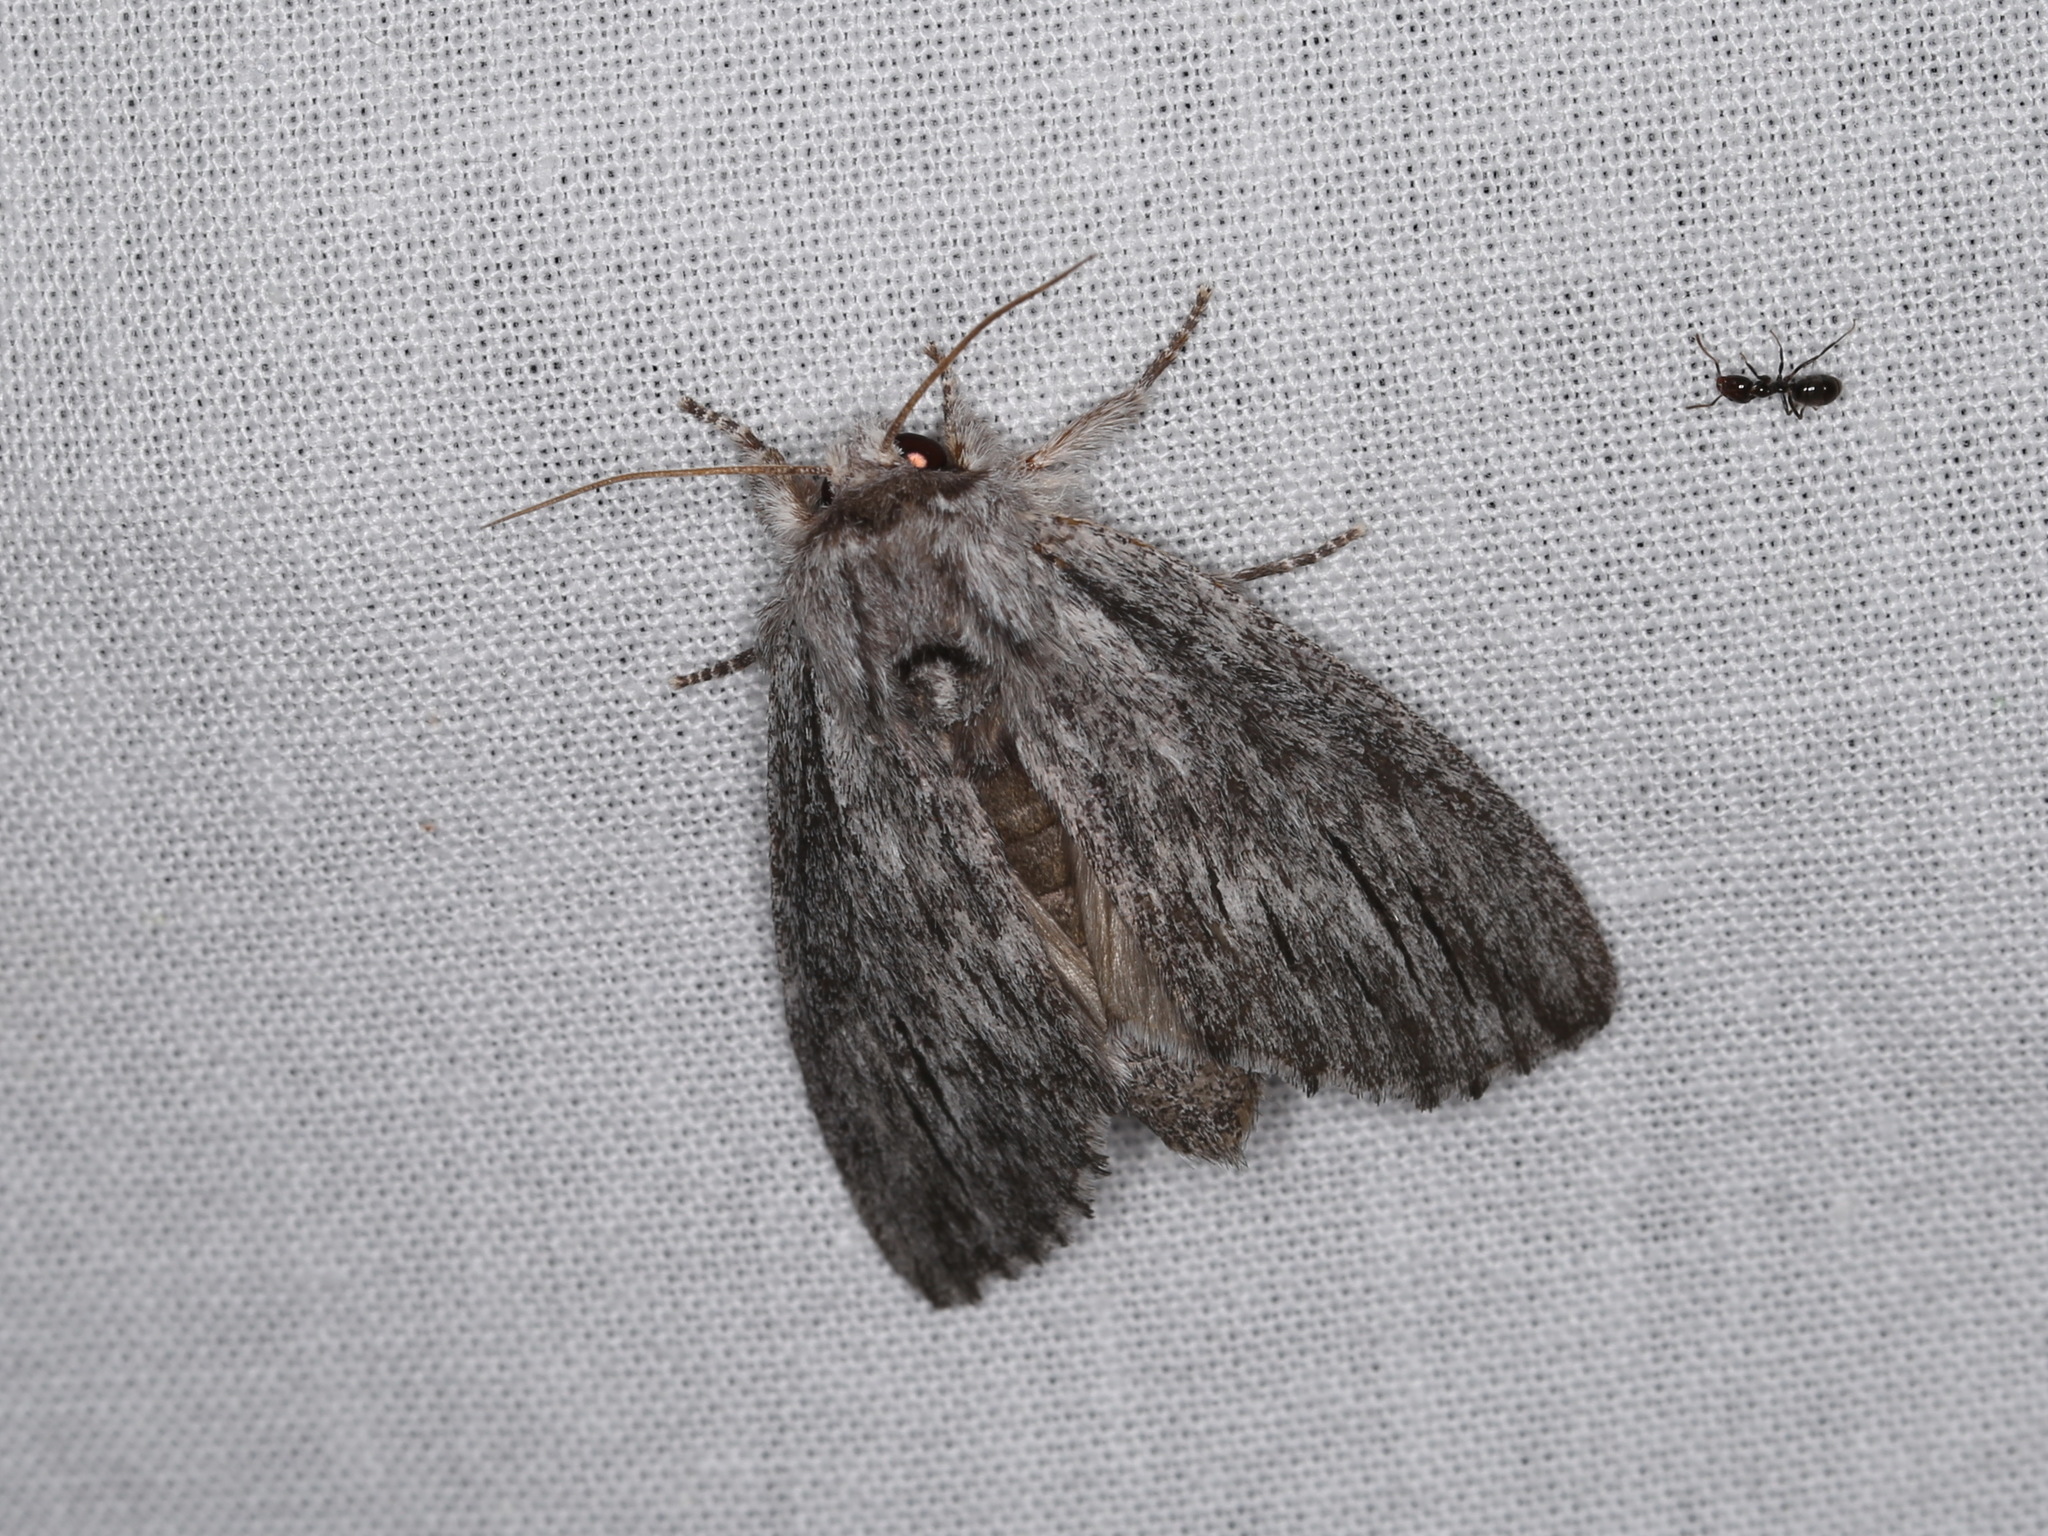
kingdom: Animalia
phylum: Arthropoda
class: Insecta
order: Lepidoptera
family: Notodontidae
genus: Destolmia
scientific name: Destolmia lineata
